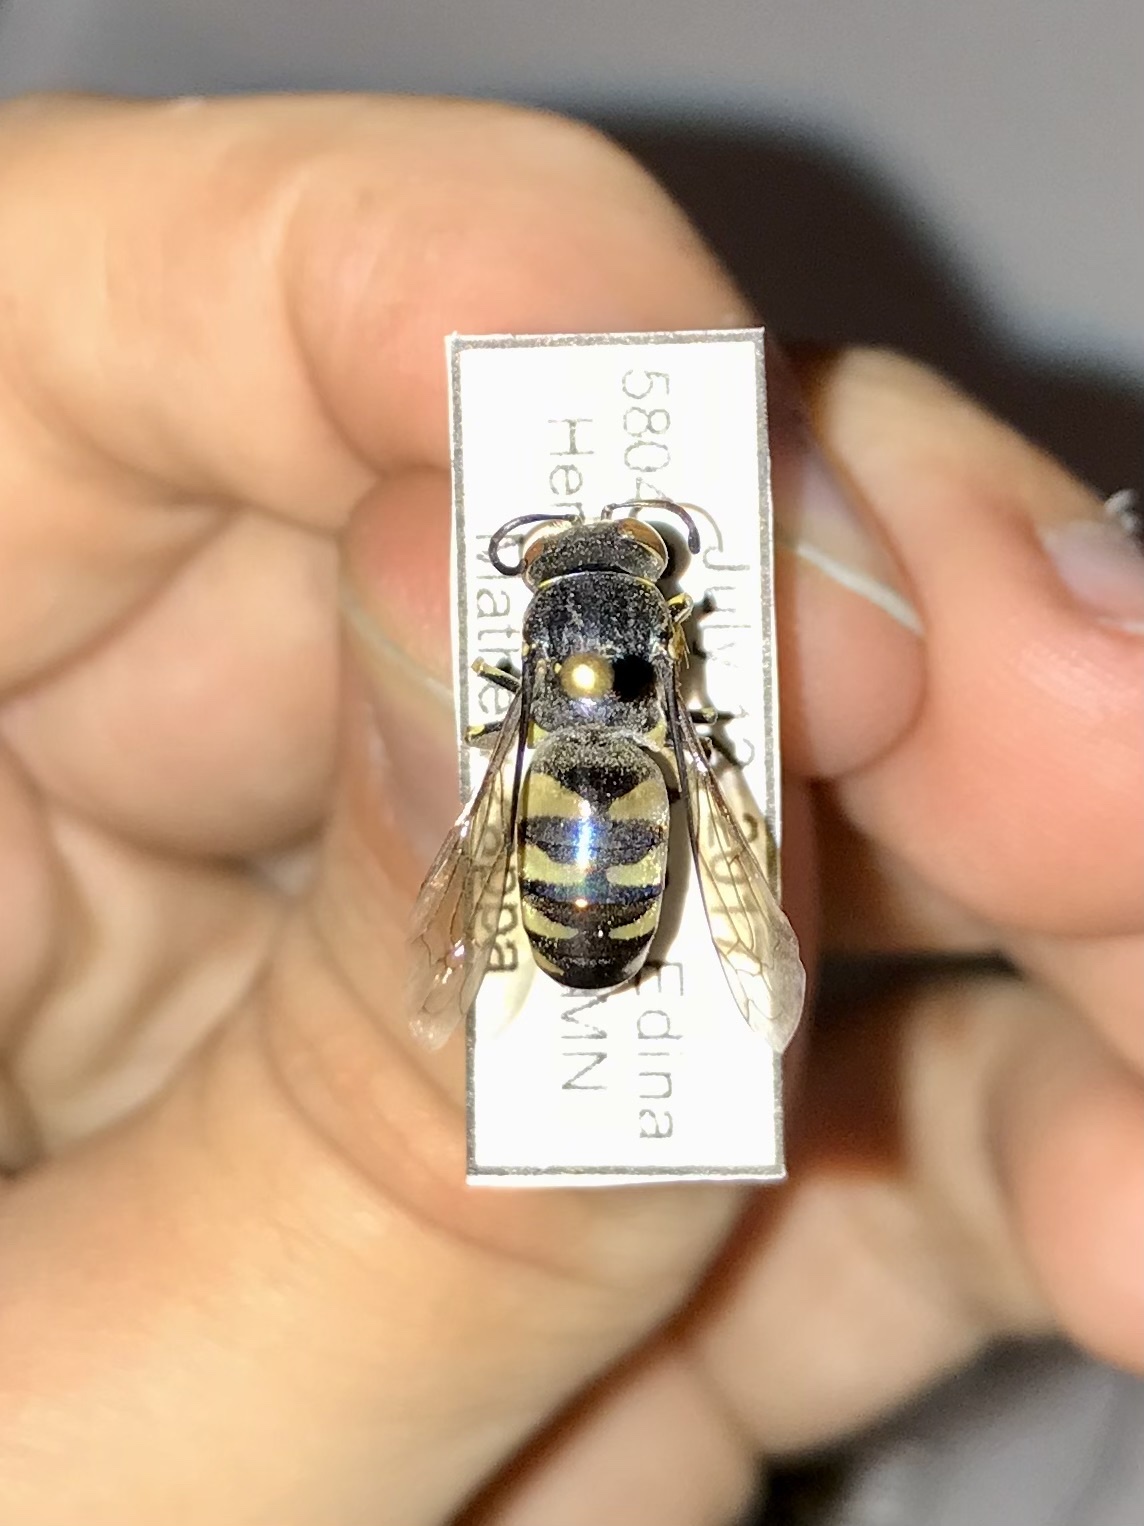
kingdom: Animalia
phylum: Arthropoda
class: Insecta
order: Hymenoptera
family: Crabronidae
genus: Bicyrtes
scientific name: Bicyrtes quadrifasciatus
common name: Four-banded stink bug hunter wasp
